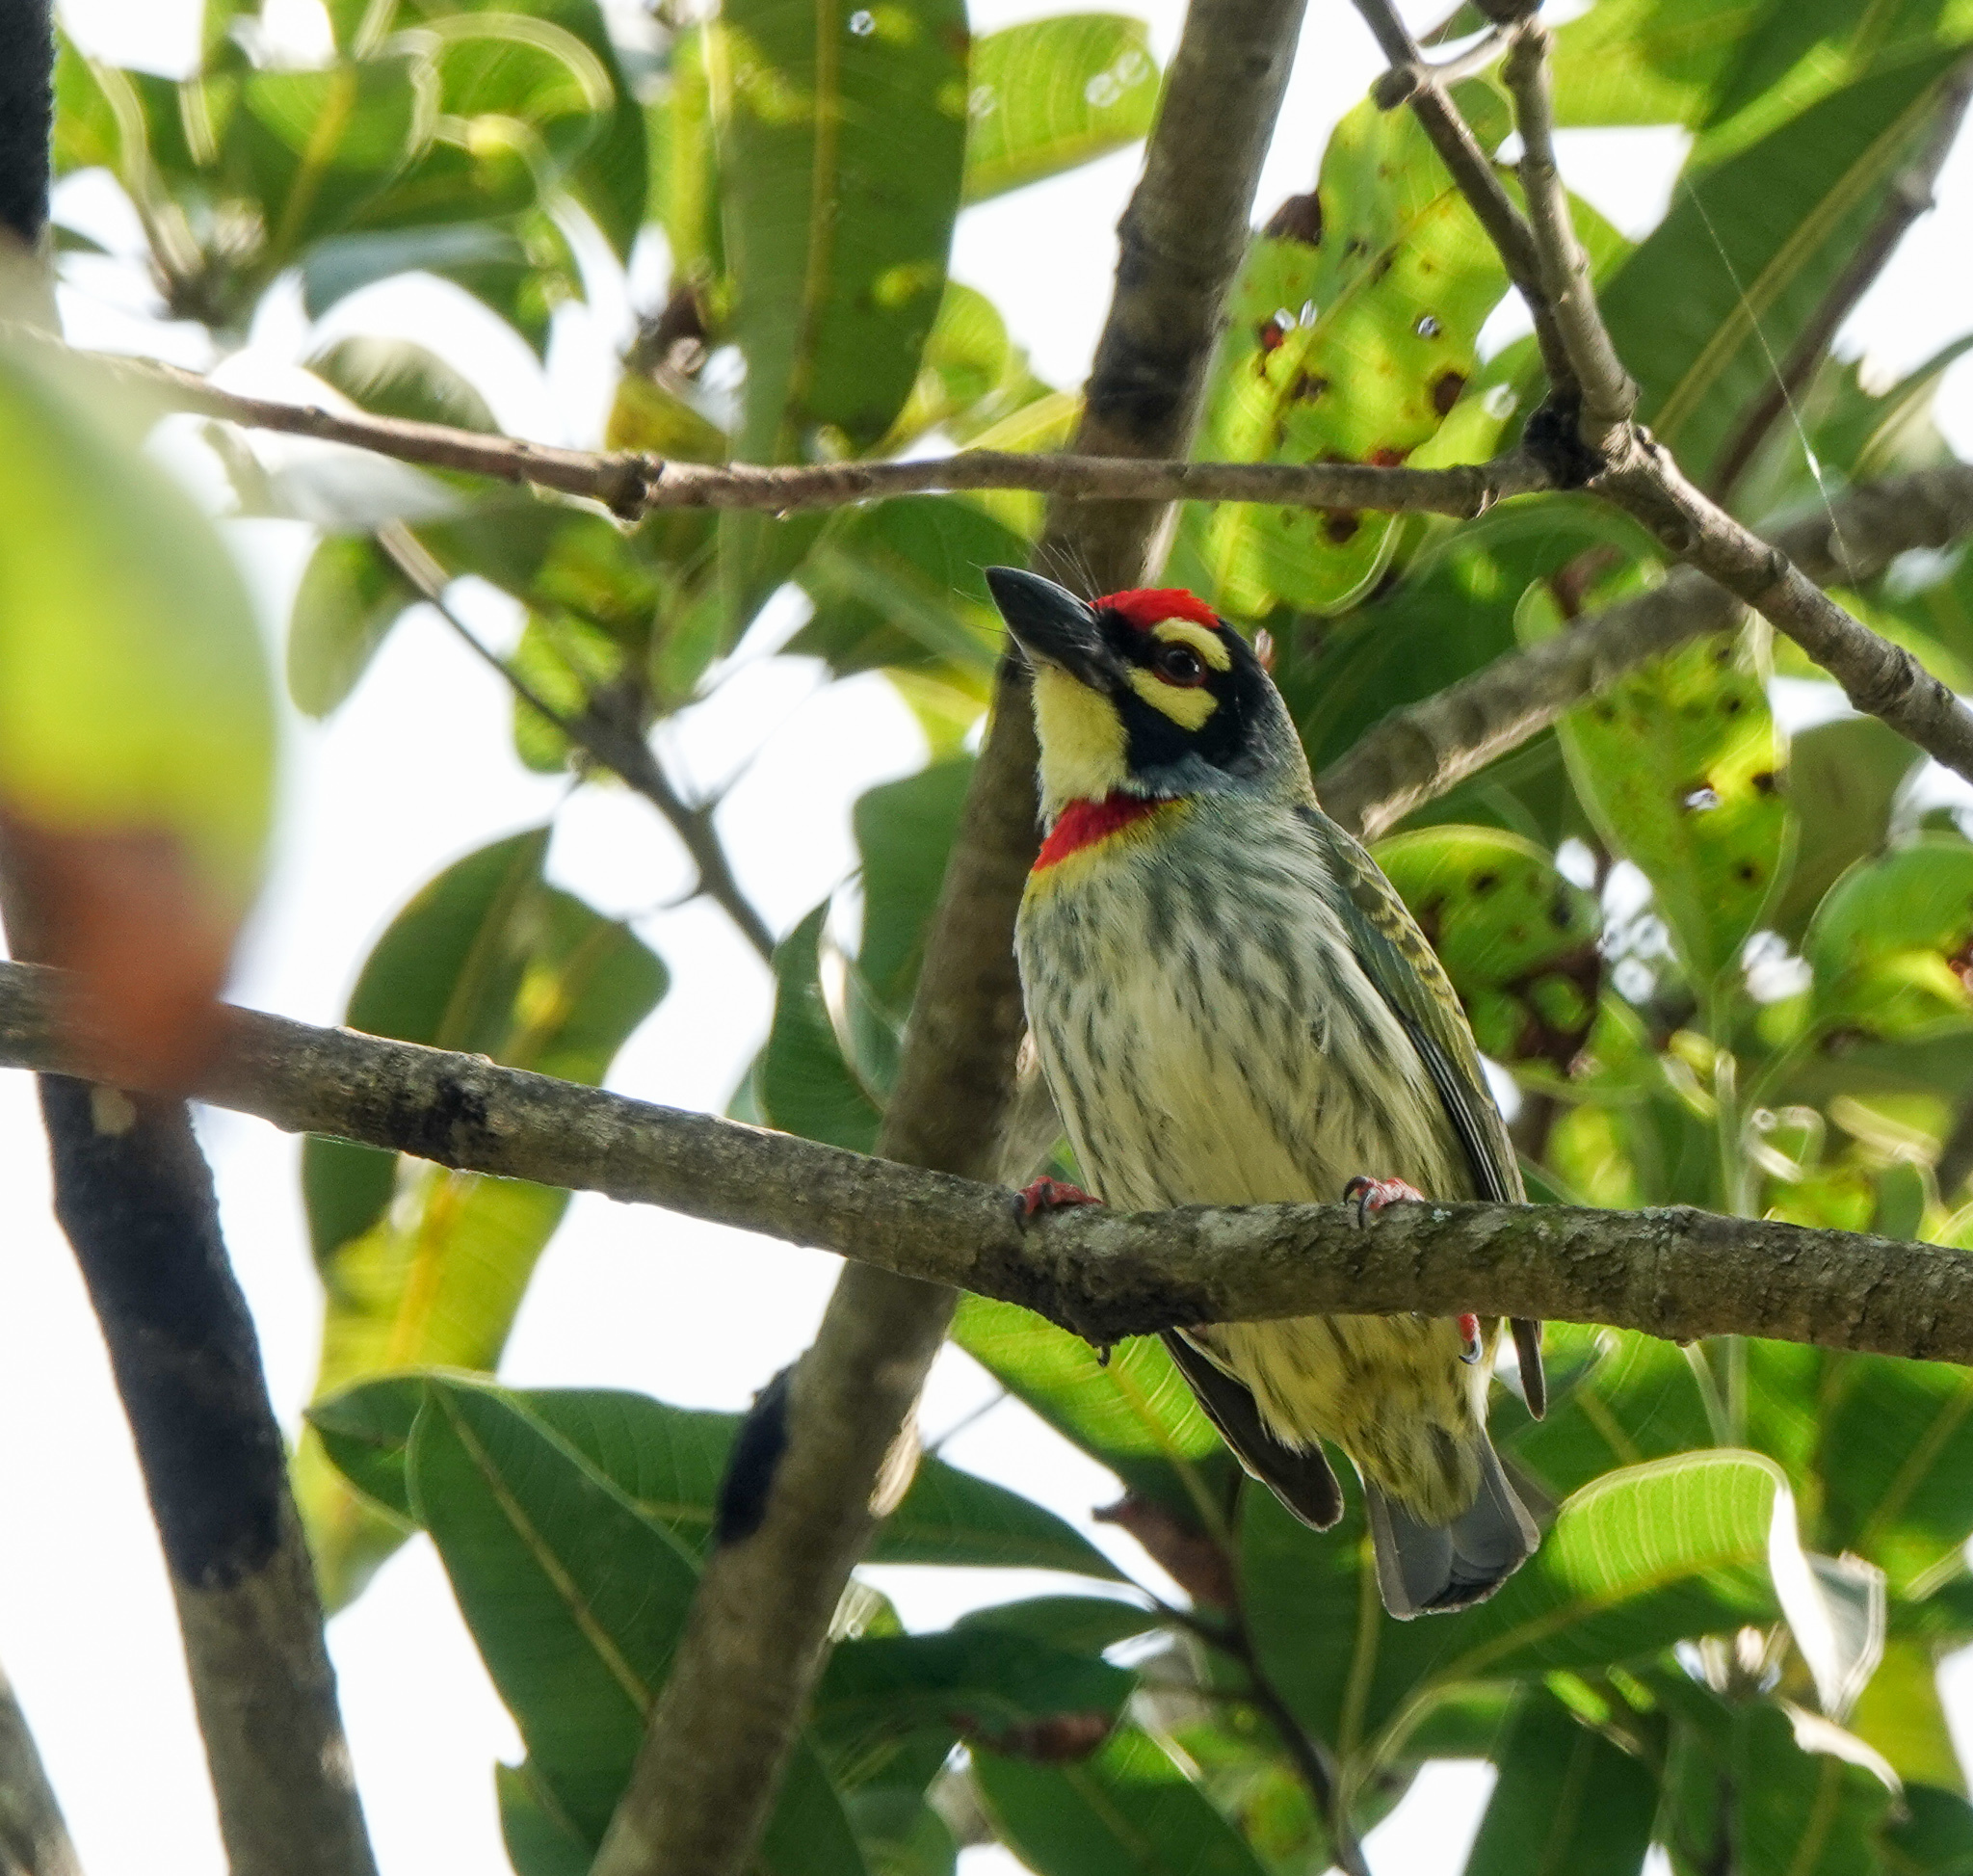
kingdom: Animalia
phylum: Chordata
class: Aves
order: Piciformes
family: Megalaimidae
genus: Psilopogon
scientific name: Psilopogon haemacephalus
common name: Coppersmith barbet
